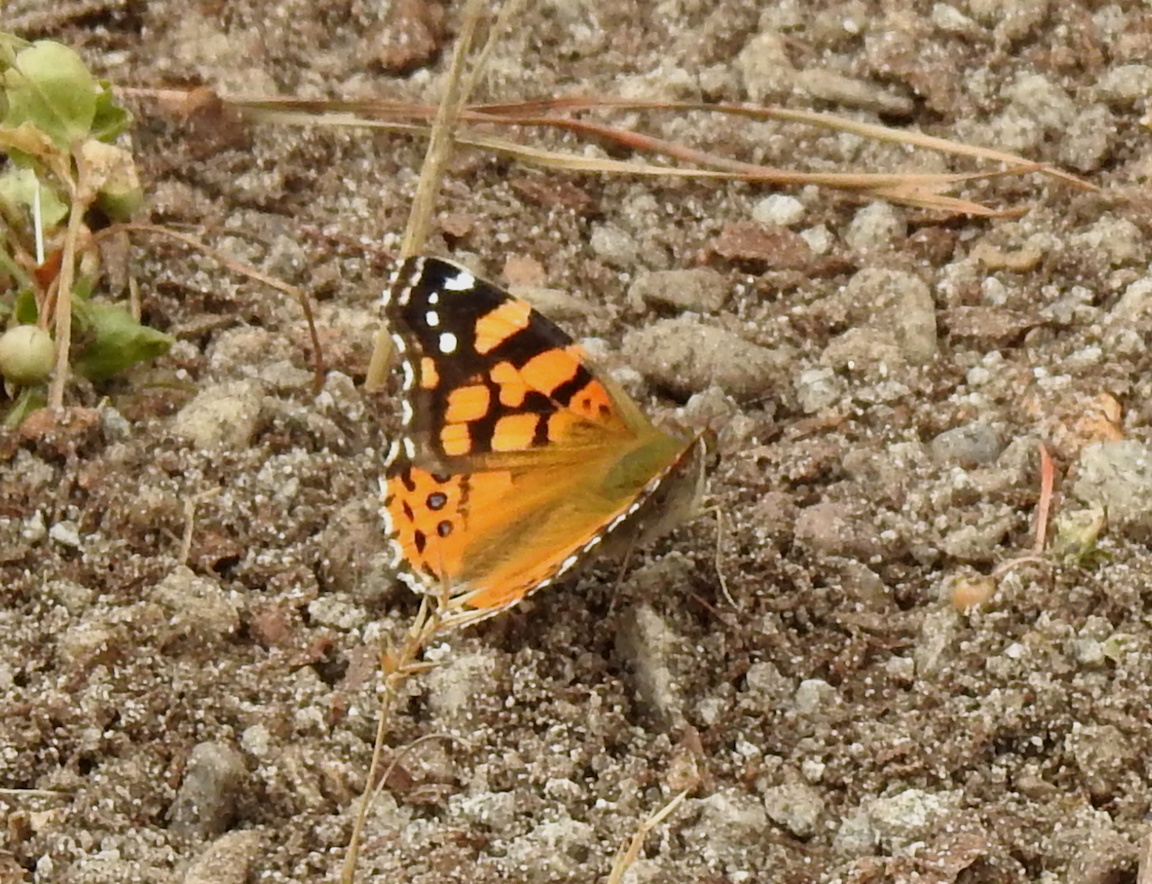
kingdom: Animalia
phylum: Arthropoda
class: Insecta
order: Lepidoptera
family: Nymphalidae
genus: Vanessa
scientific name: Vanessa annabella
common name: West coast lady
